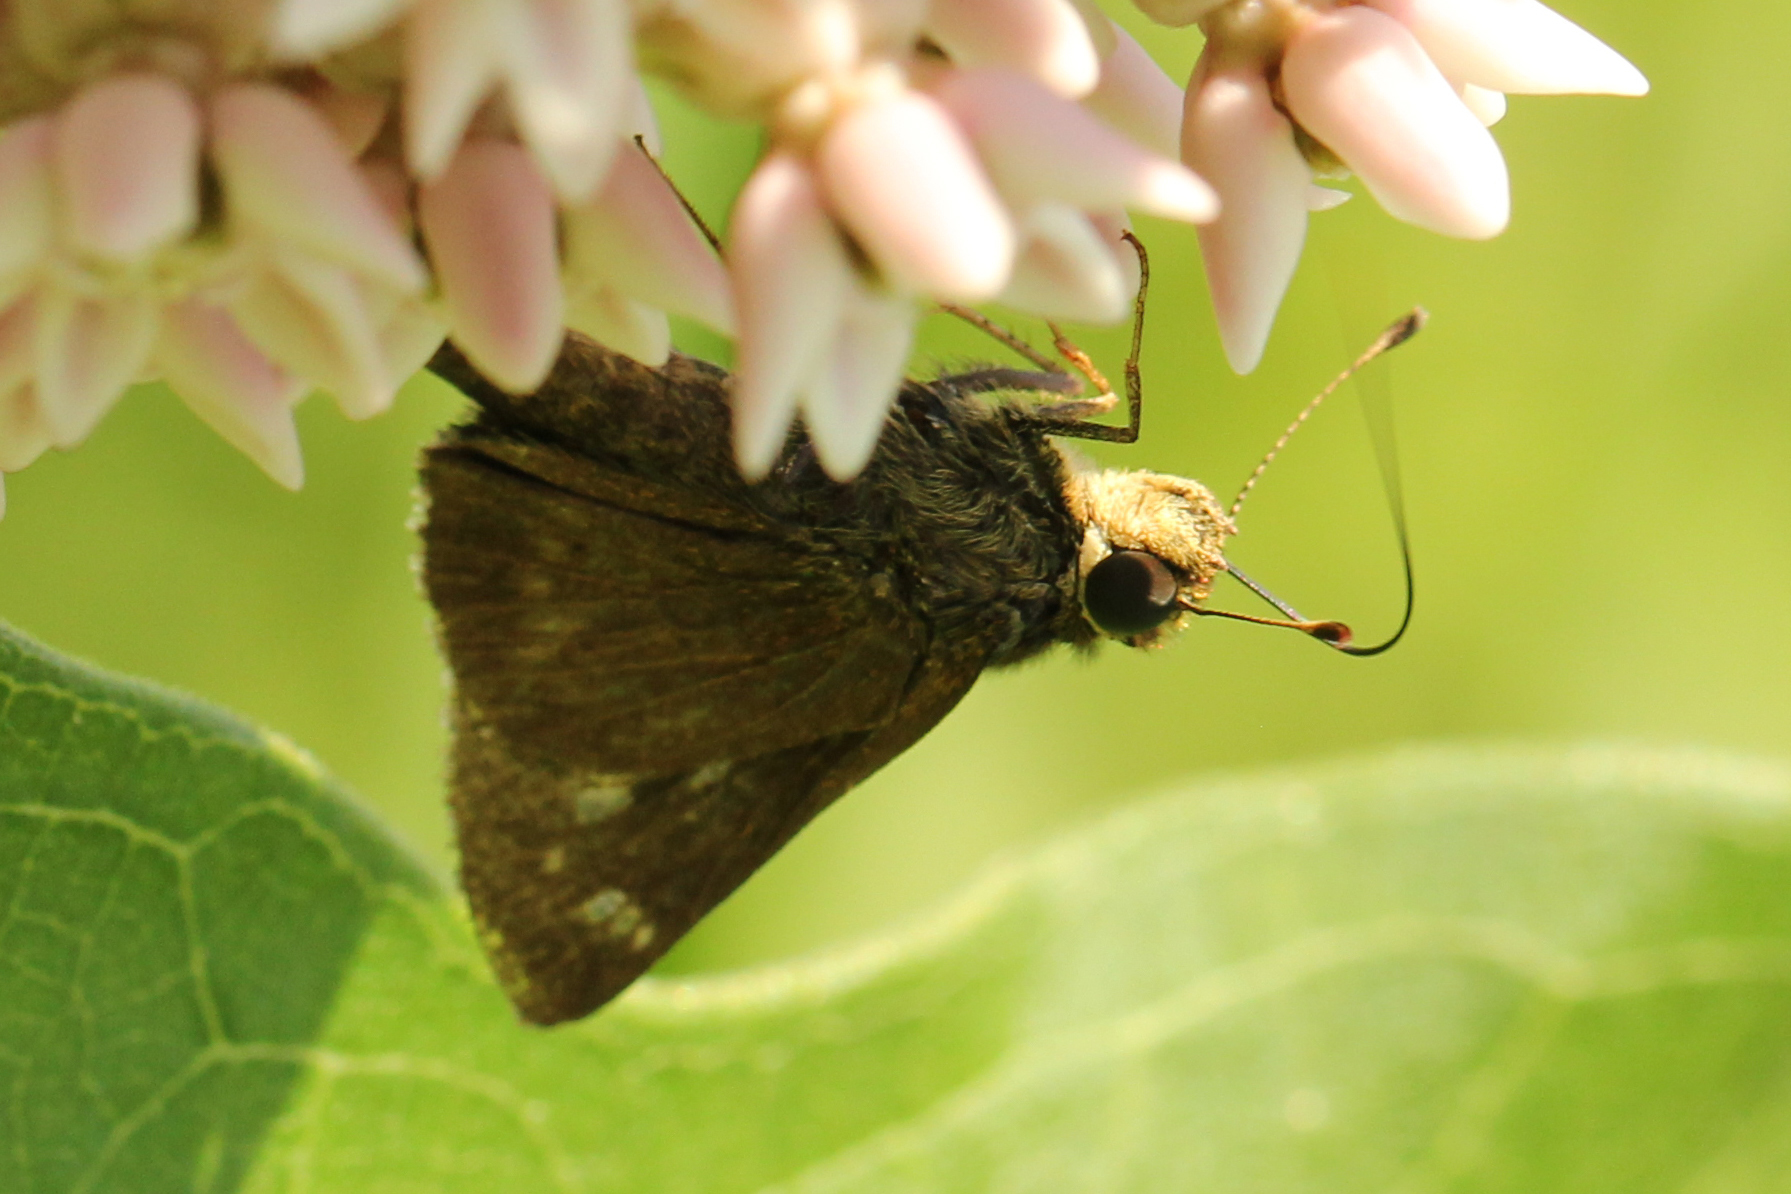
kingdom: Animalia
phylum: Arthropoda
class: Insecta
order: Lepidoptera
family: Hesperiidae
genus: Vernia
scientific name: Vernia verna
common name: Little glassywing
